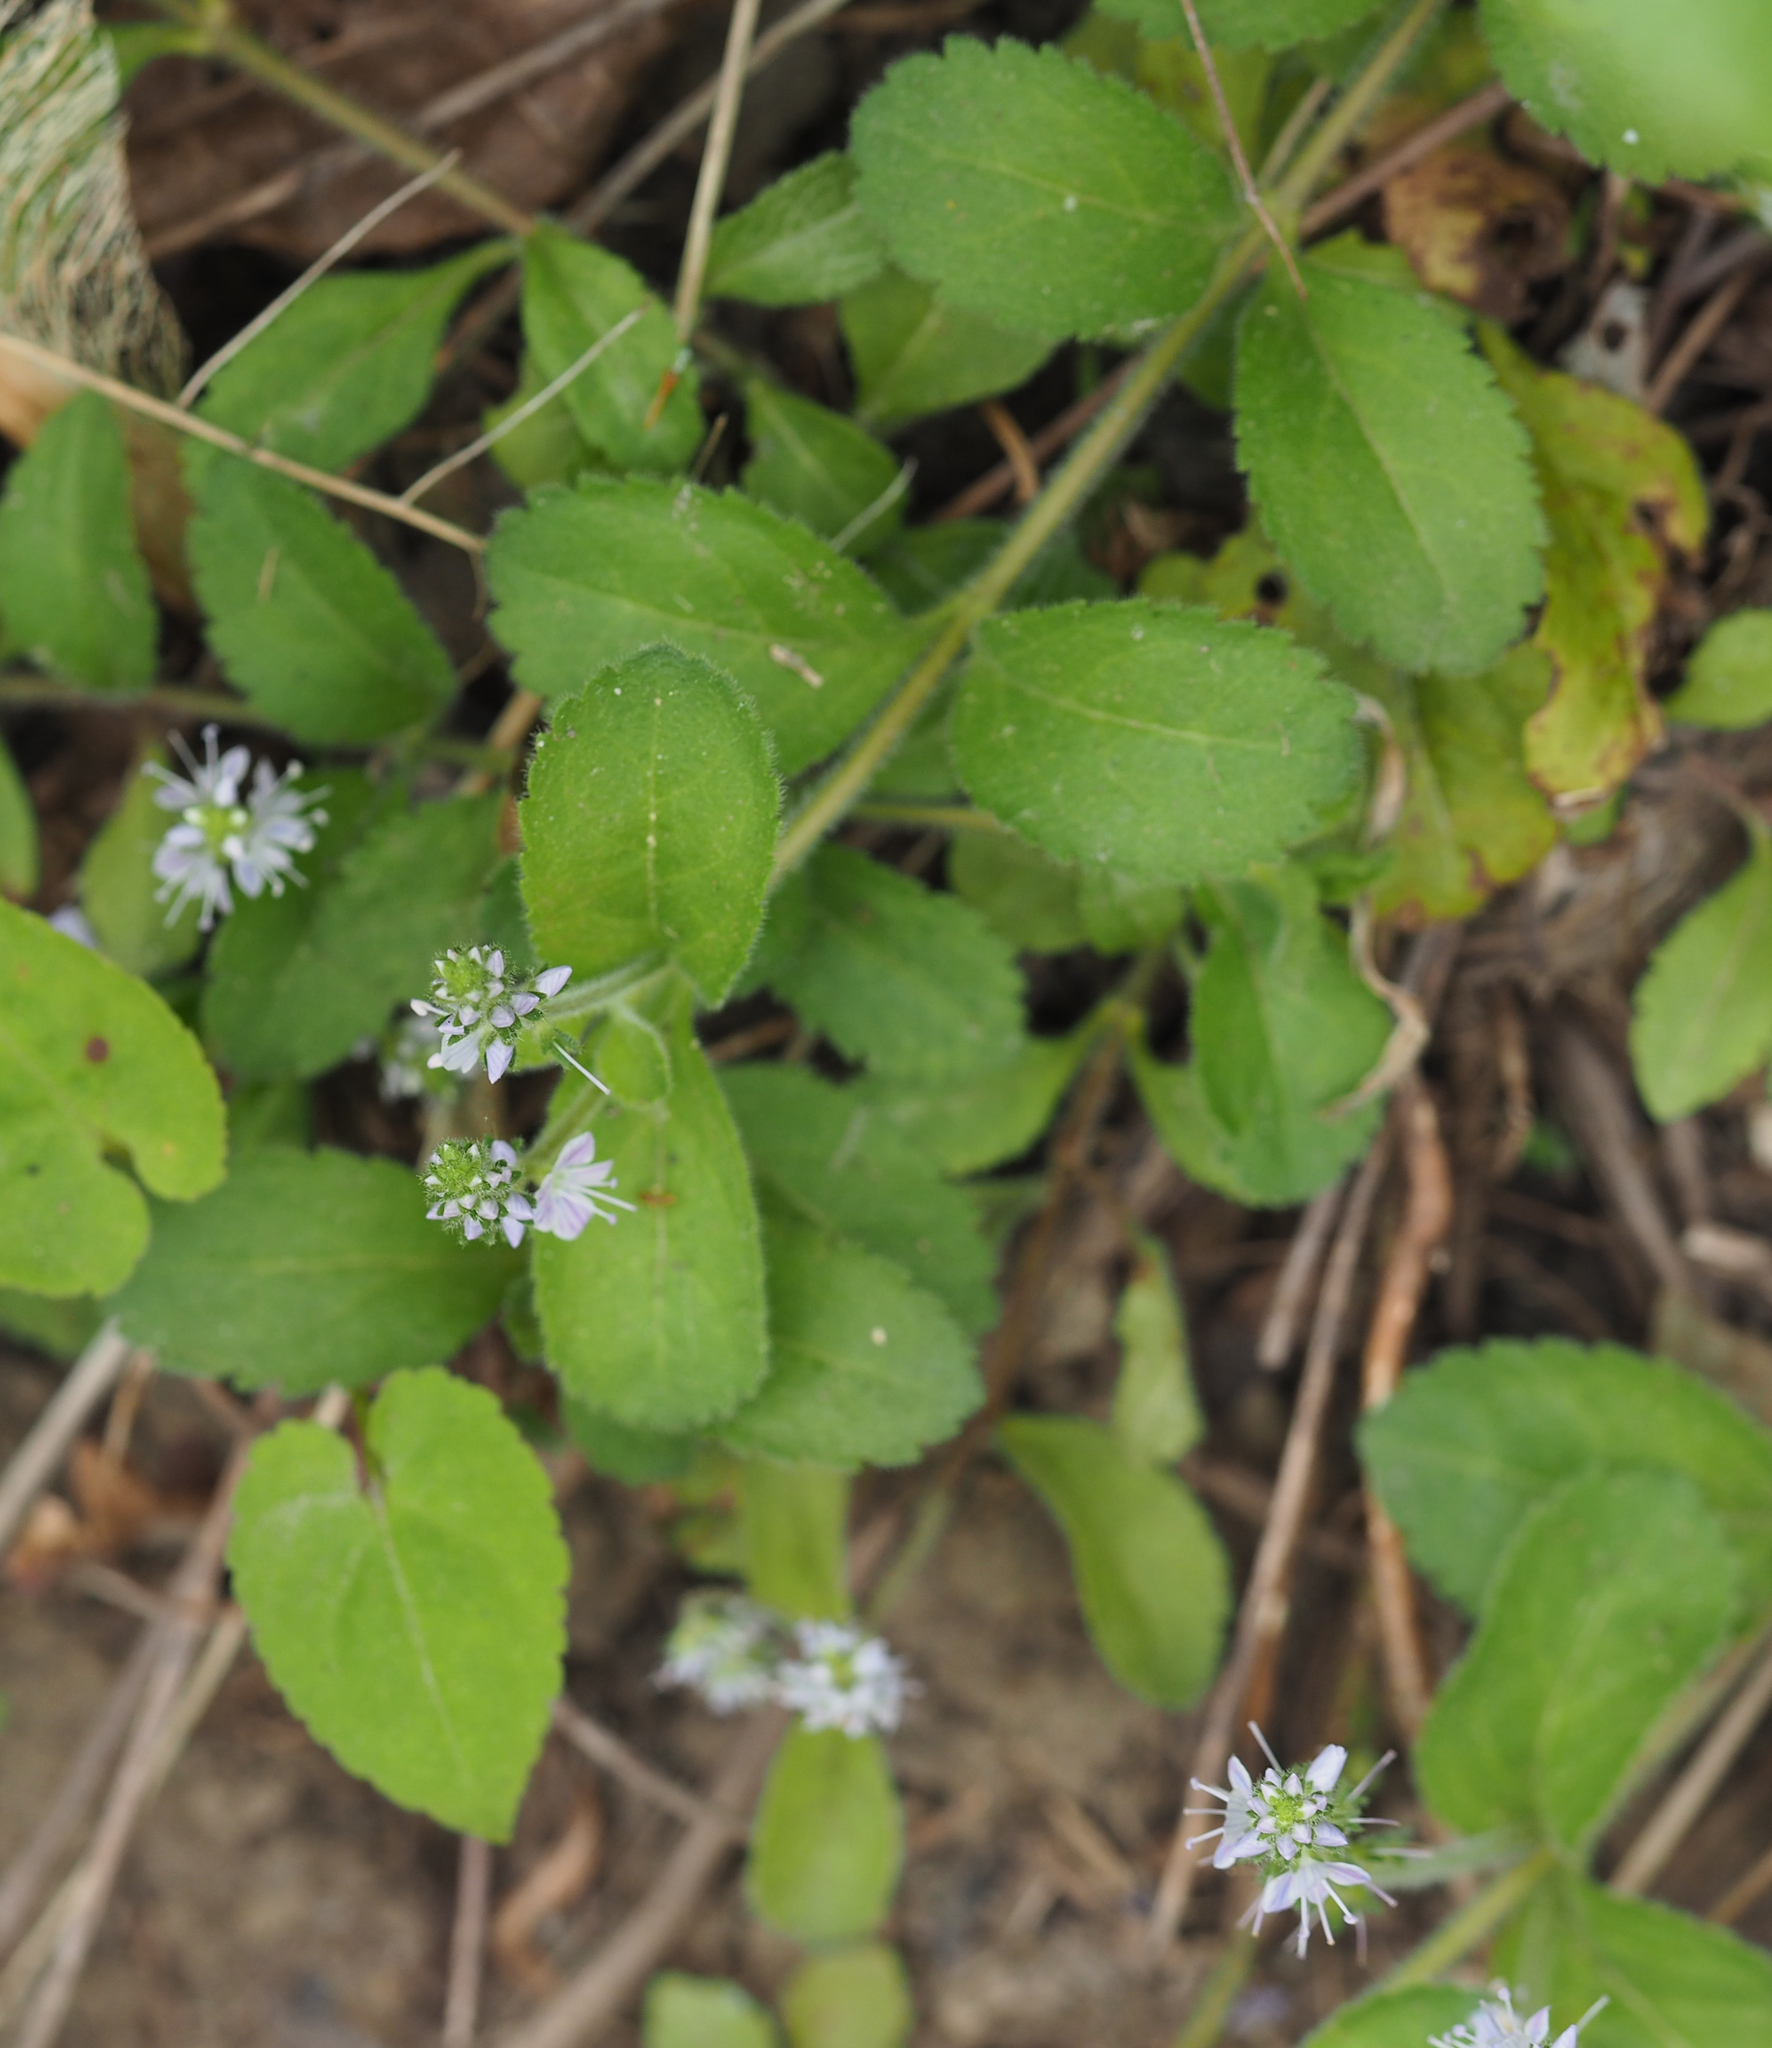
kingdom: Plantae
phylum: Tracheophyta
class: Magnoliopsida
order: Lamiales
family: Plantaginaceae
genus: Veronica
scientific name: Veronica officinalis
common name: Common speedwell
